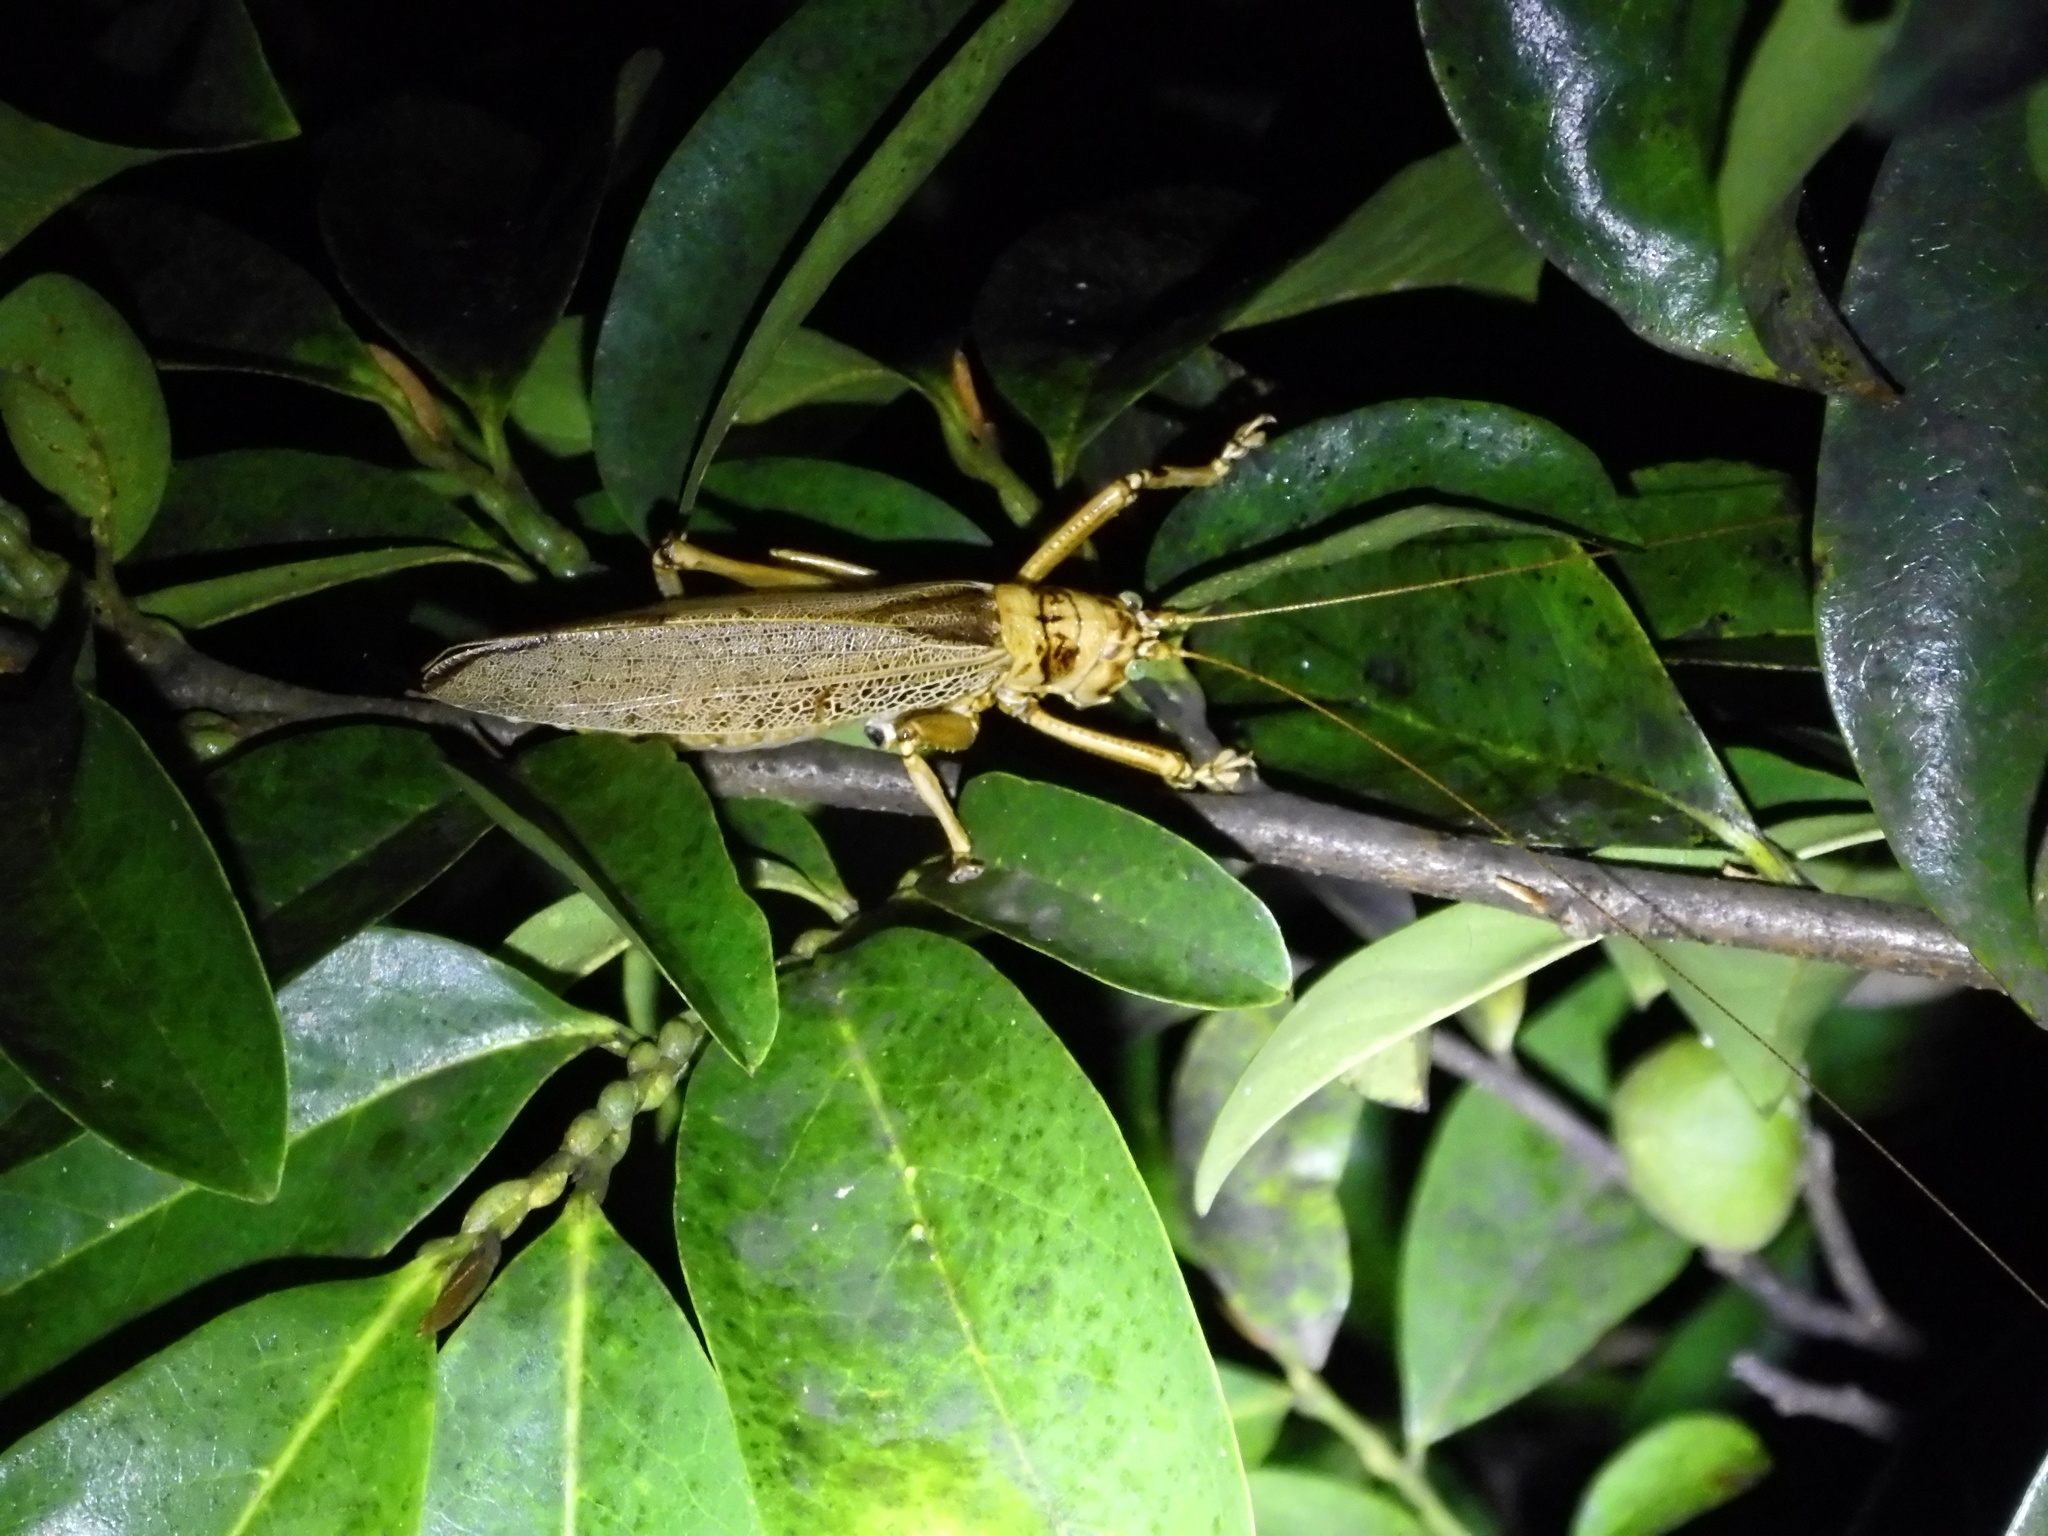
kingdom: Animalia
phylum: Arthropoda
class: Insecta
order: Orthoptera
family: Tettigoniidae
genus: Nesonotus
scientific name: Nesonotus tricornis
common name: Forest katydid
